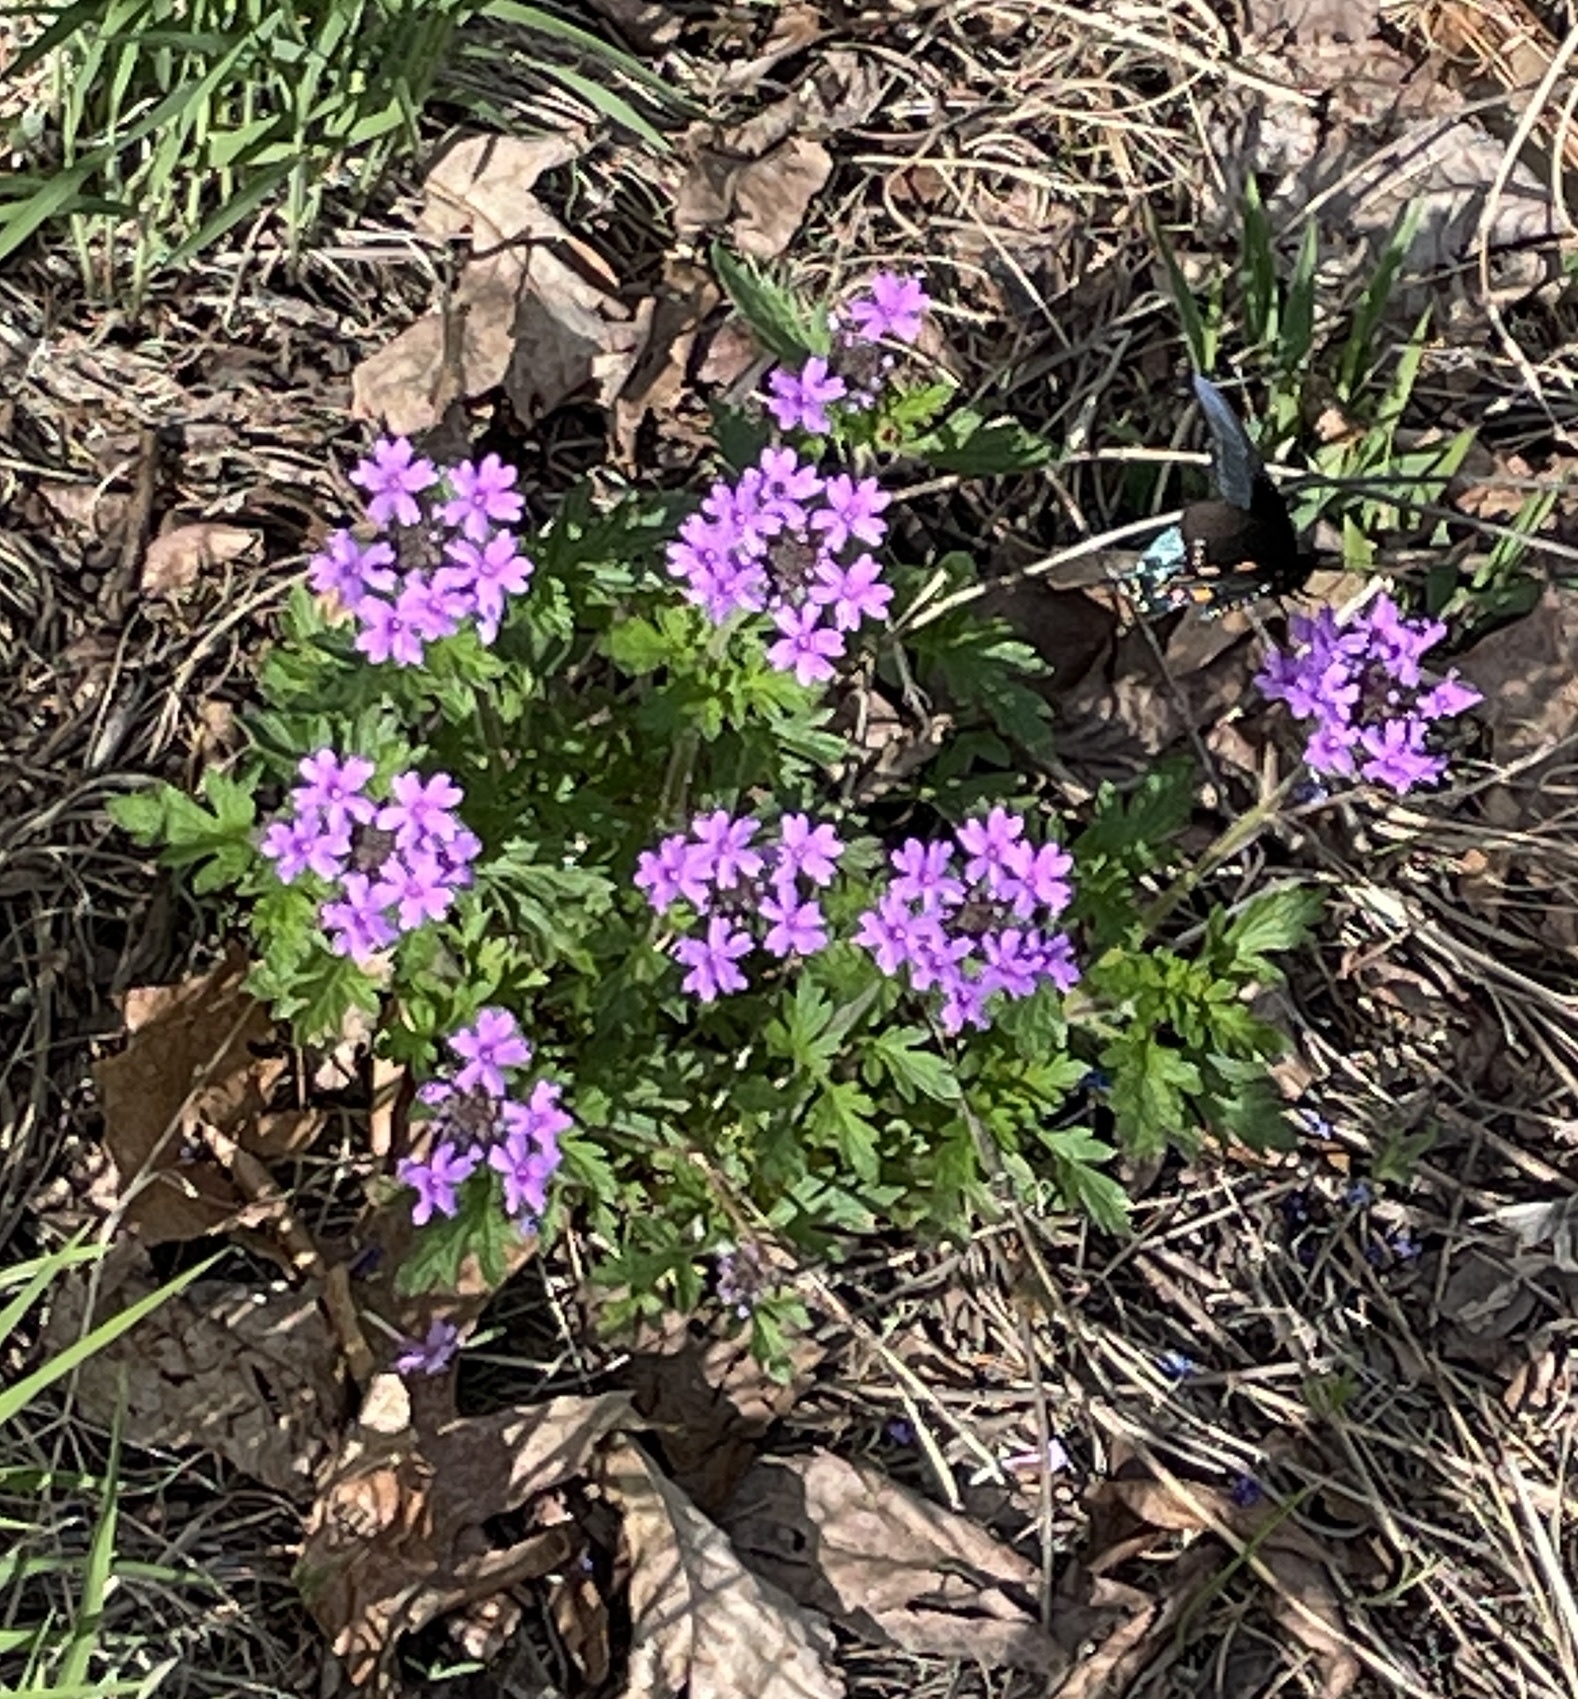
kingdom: Plantae
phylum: Tracheophyta
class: Magnoliopsida
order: Lamiales
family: Verbenaceae
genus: Verbena
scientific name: Verbena canadensis
